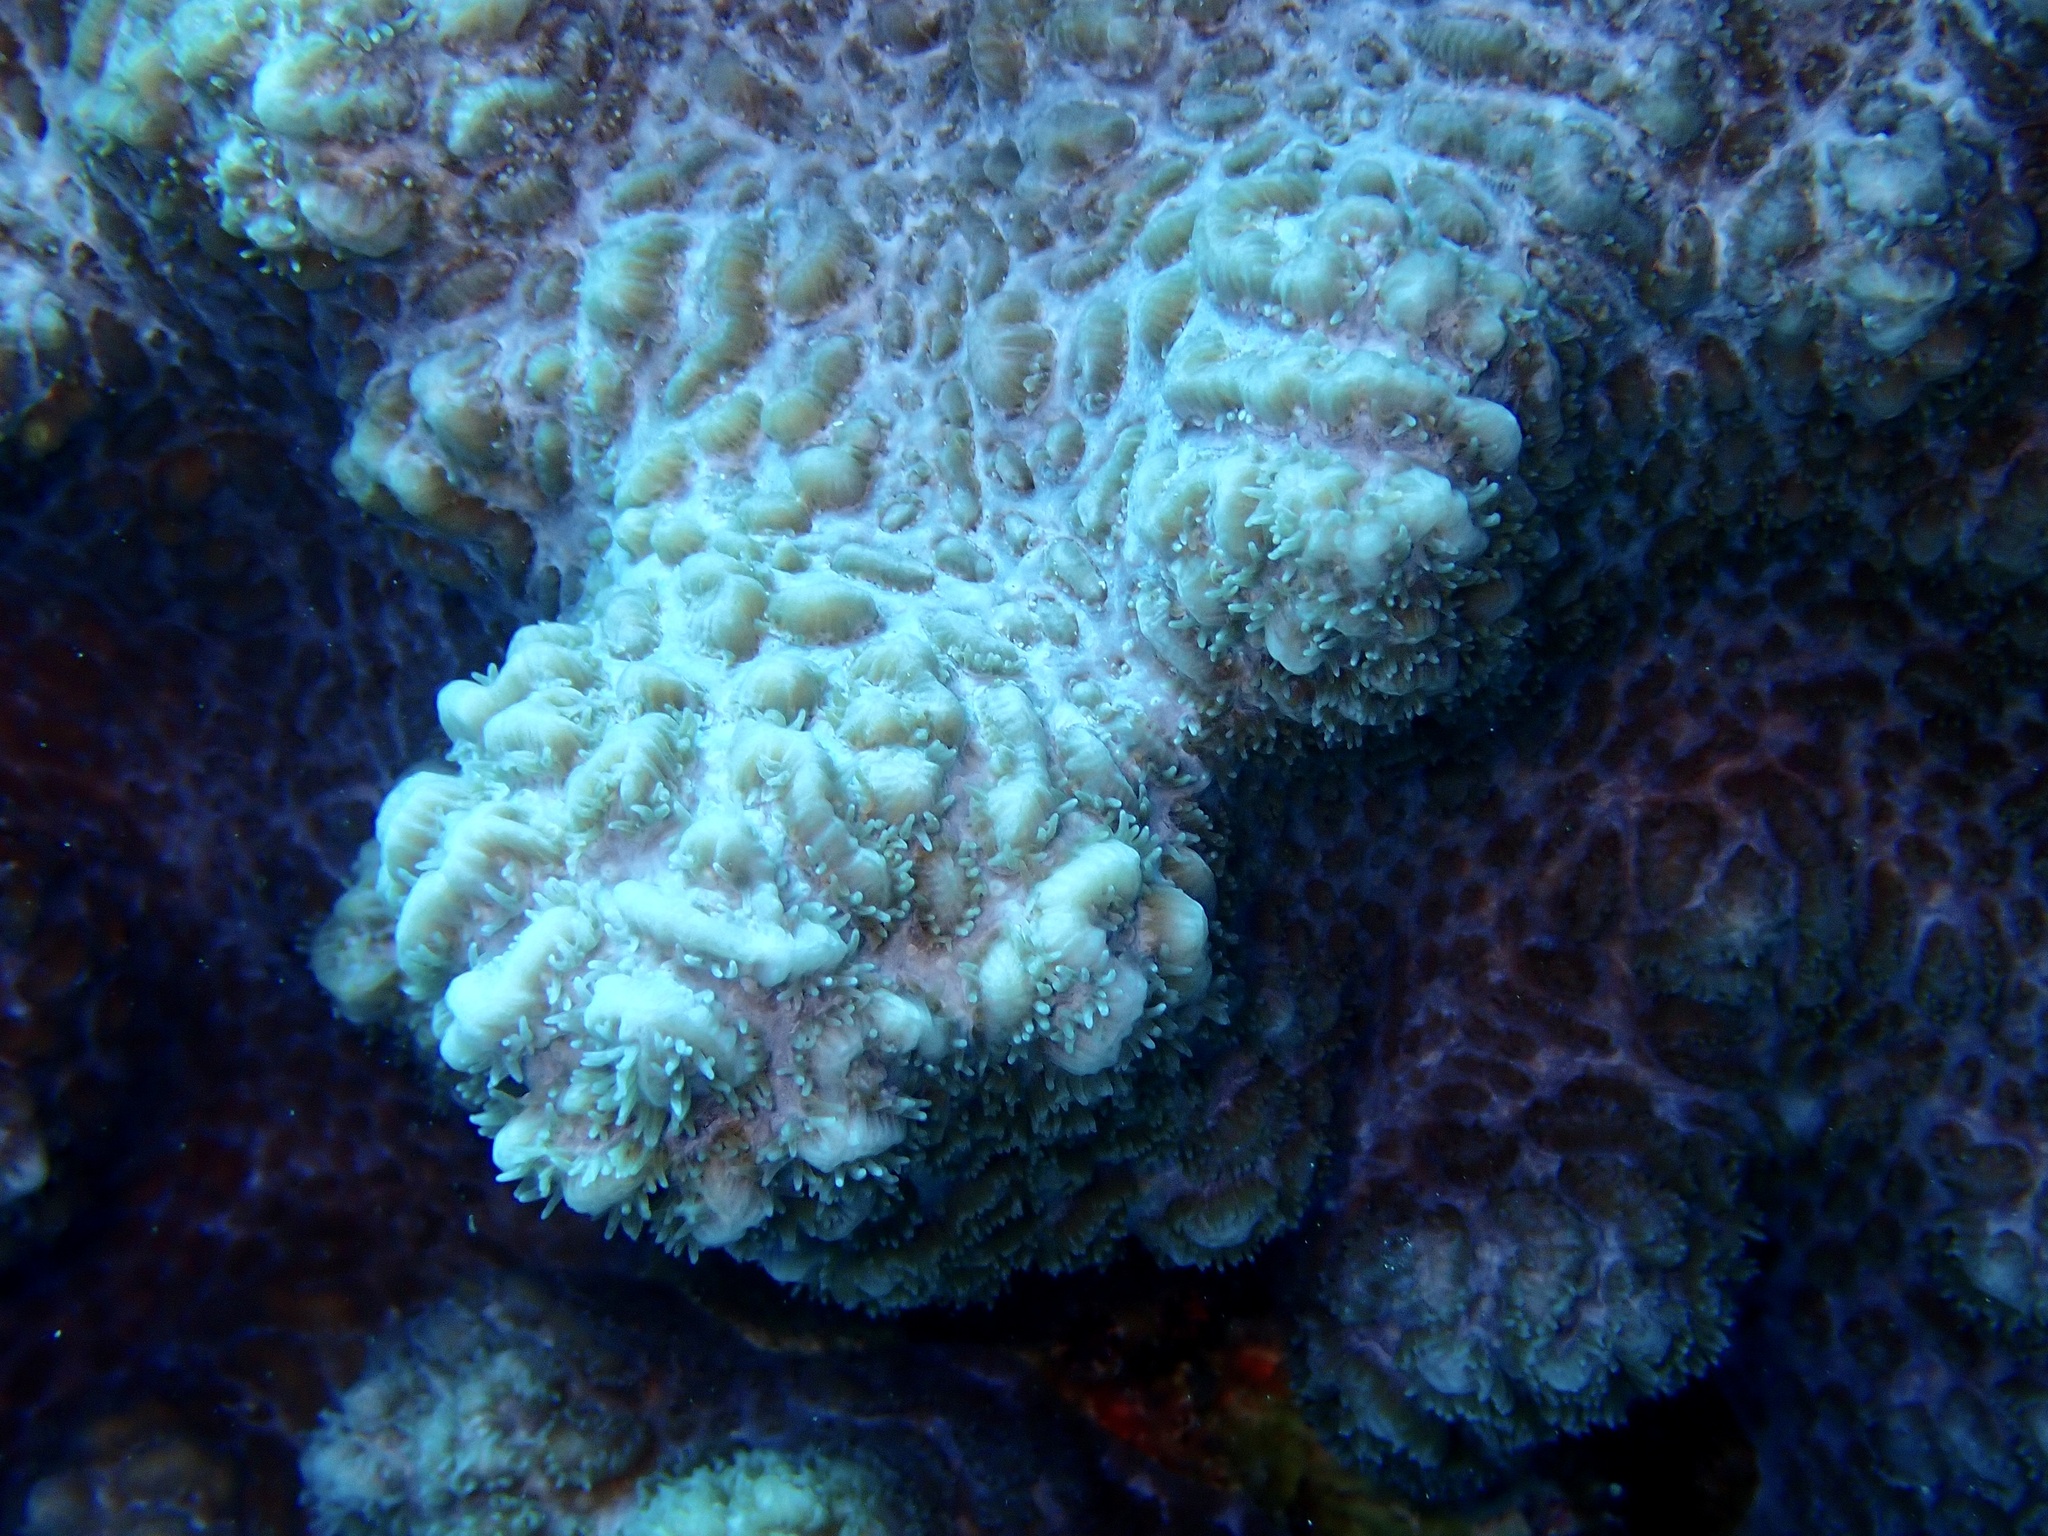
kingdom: Animalia
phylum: Cnidaria
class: Anthozoa
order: Scleractinia
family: Merulinidae
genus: Hydnophora
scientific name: Hydnophora exesa
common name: Spine coral
